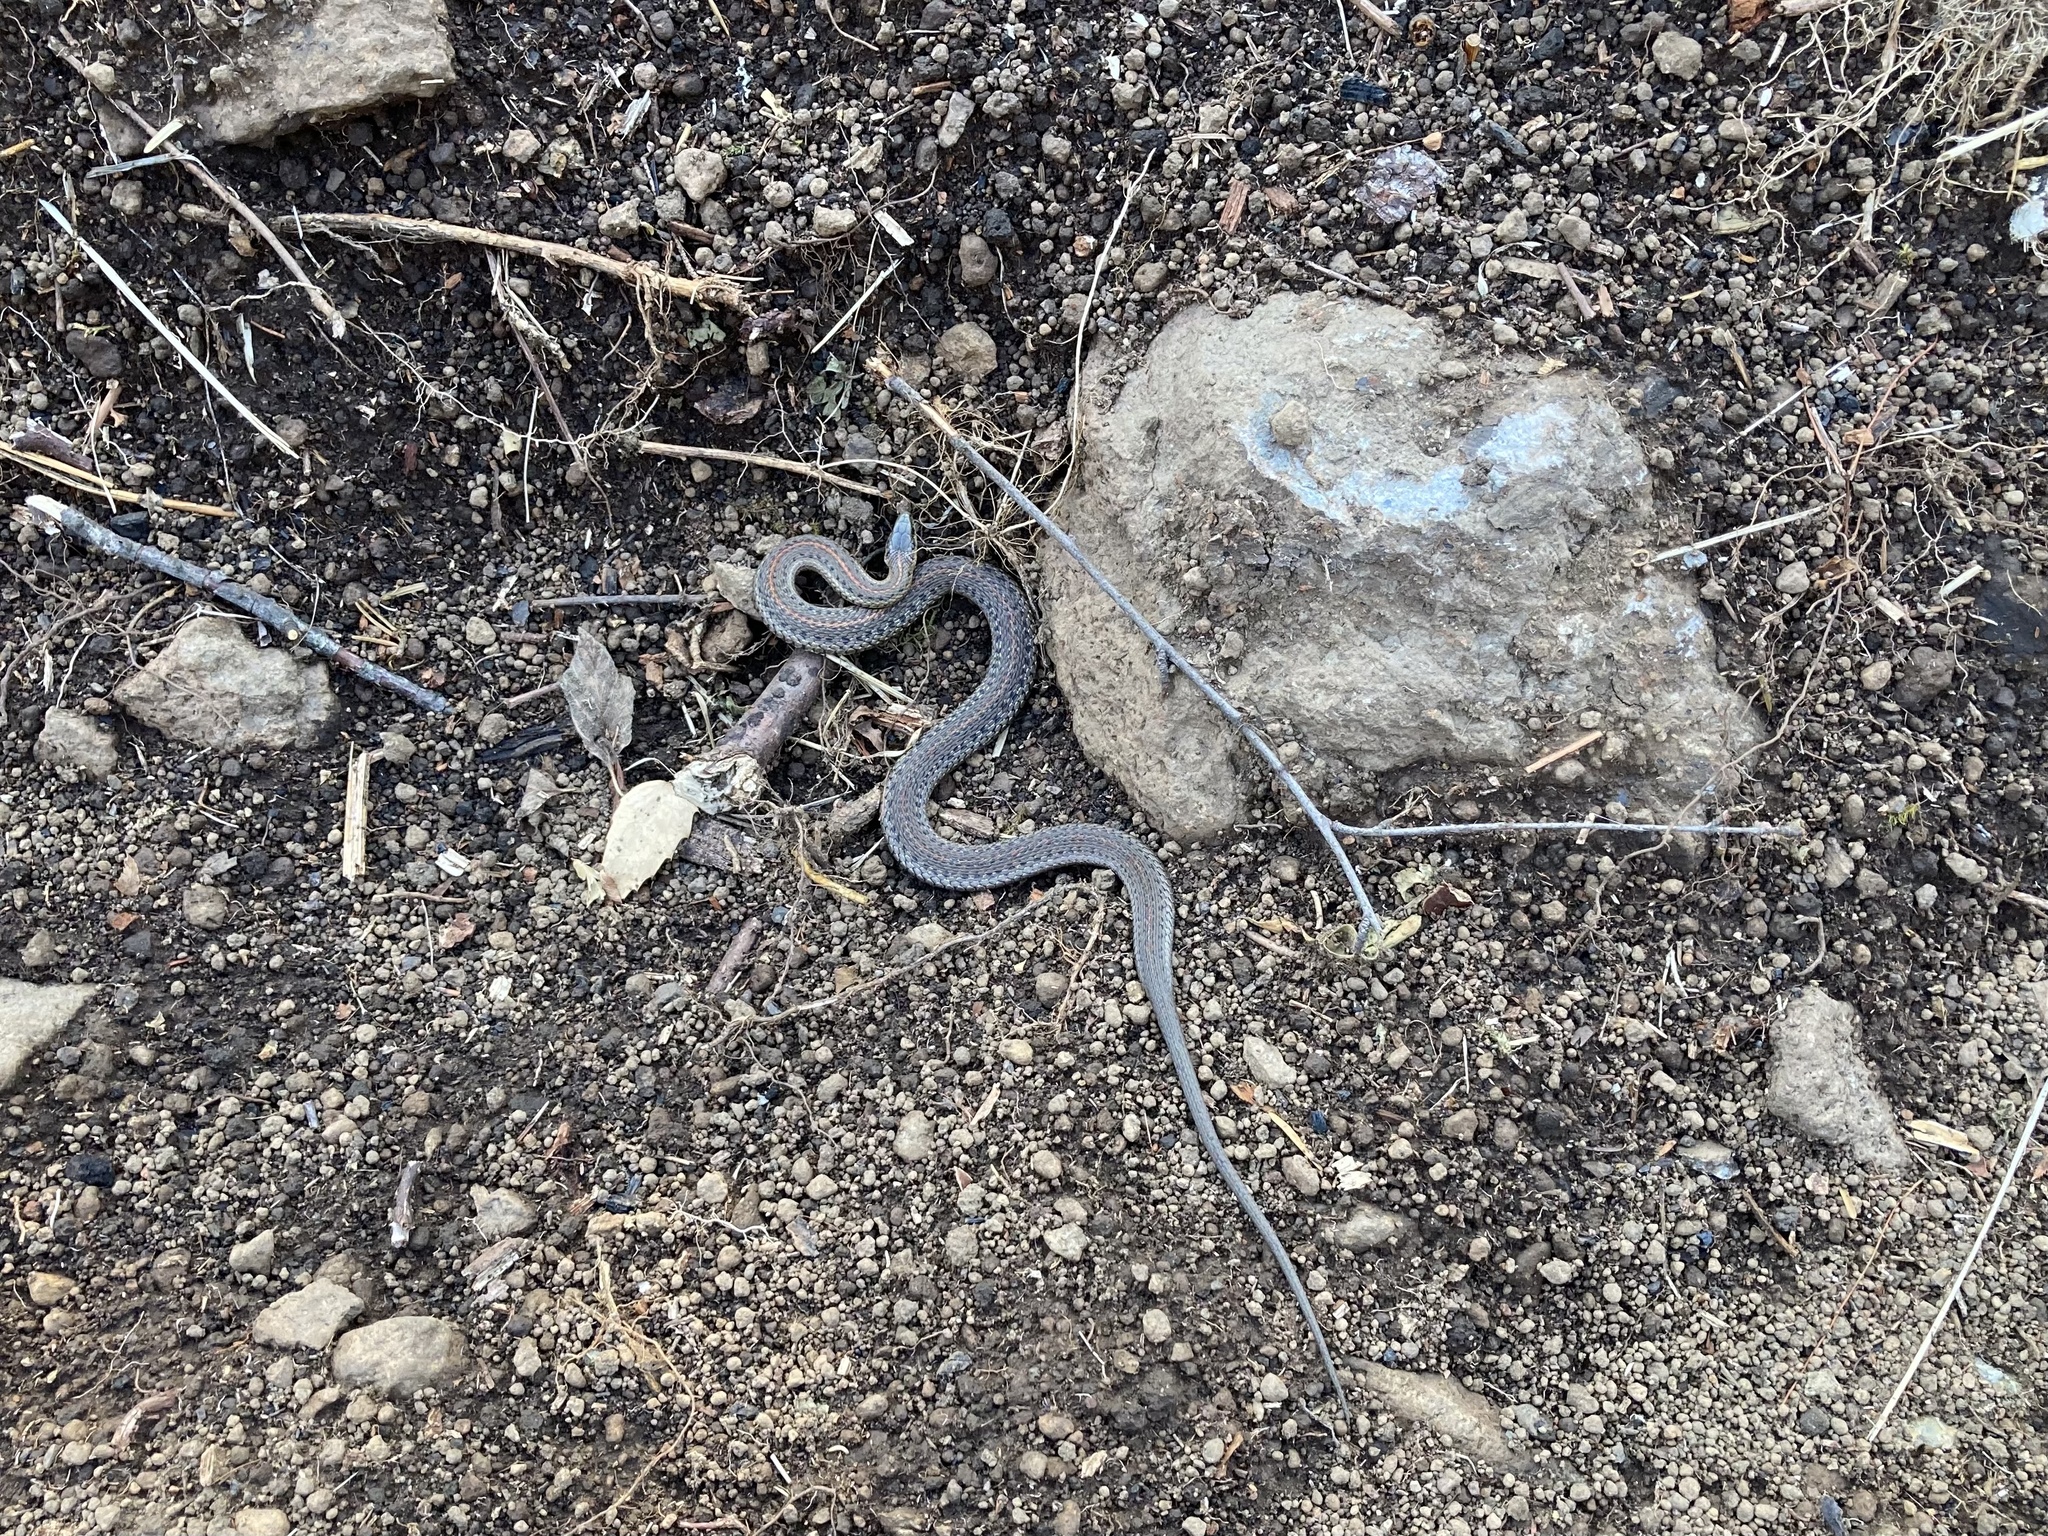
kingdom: Animalia
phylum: Chordata
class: Squamata
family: Colubridae
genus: Thamnophis
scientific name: Thamnophis ordinoides
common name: Northwestern garter snake
